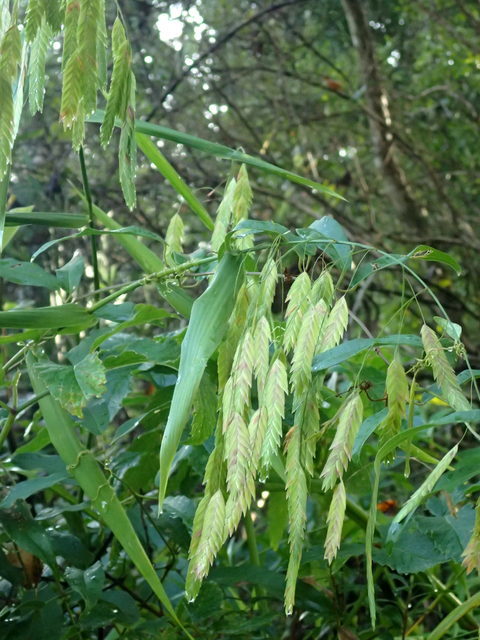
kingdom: Plantae
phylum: Tracheophyta
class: Liliopsida
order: Poales
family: Poaceae
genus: Chasmanthium
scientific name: Chasmanthium latifolium
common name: Broad-leaved chasmanthium
